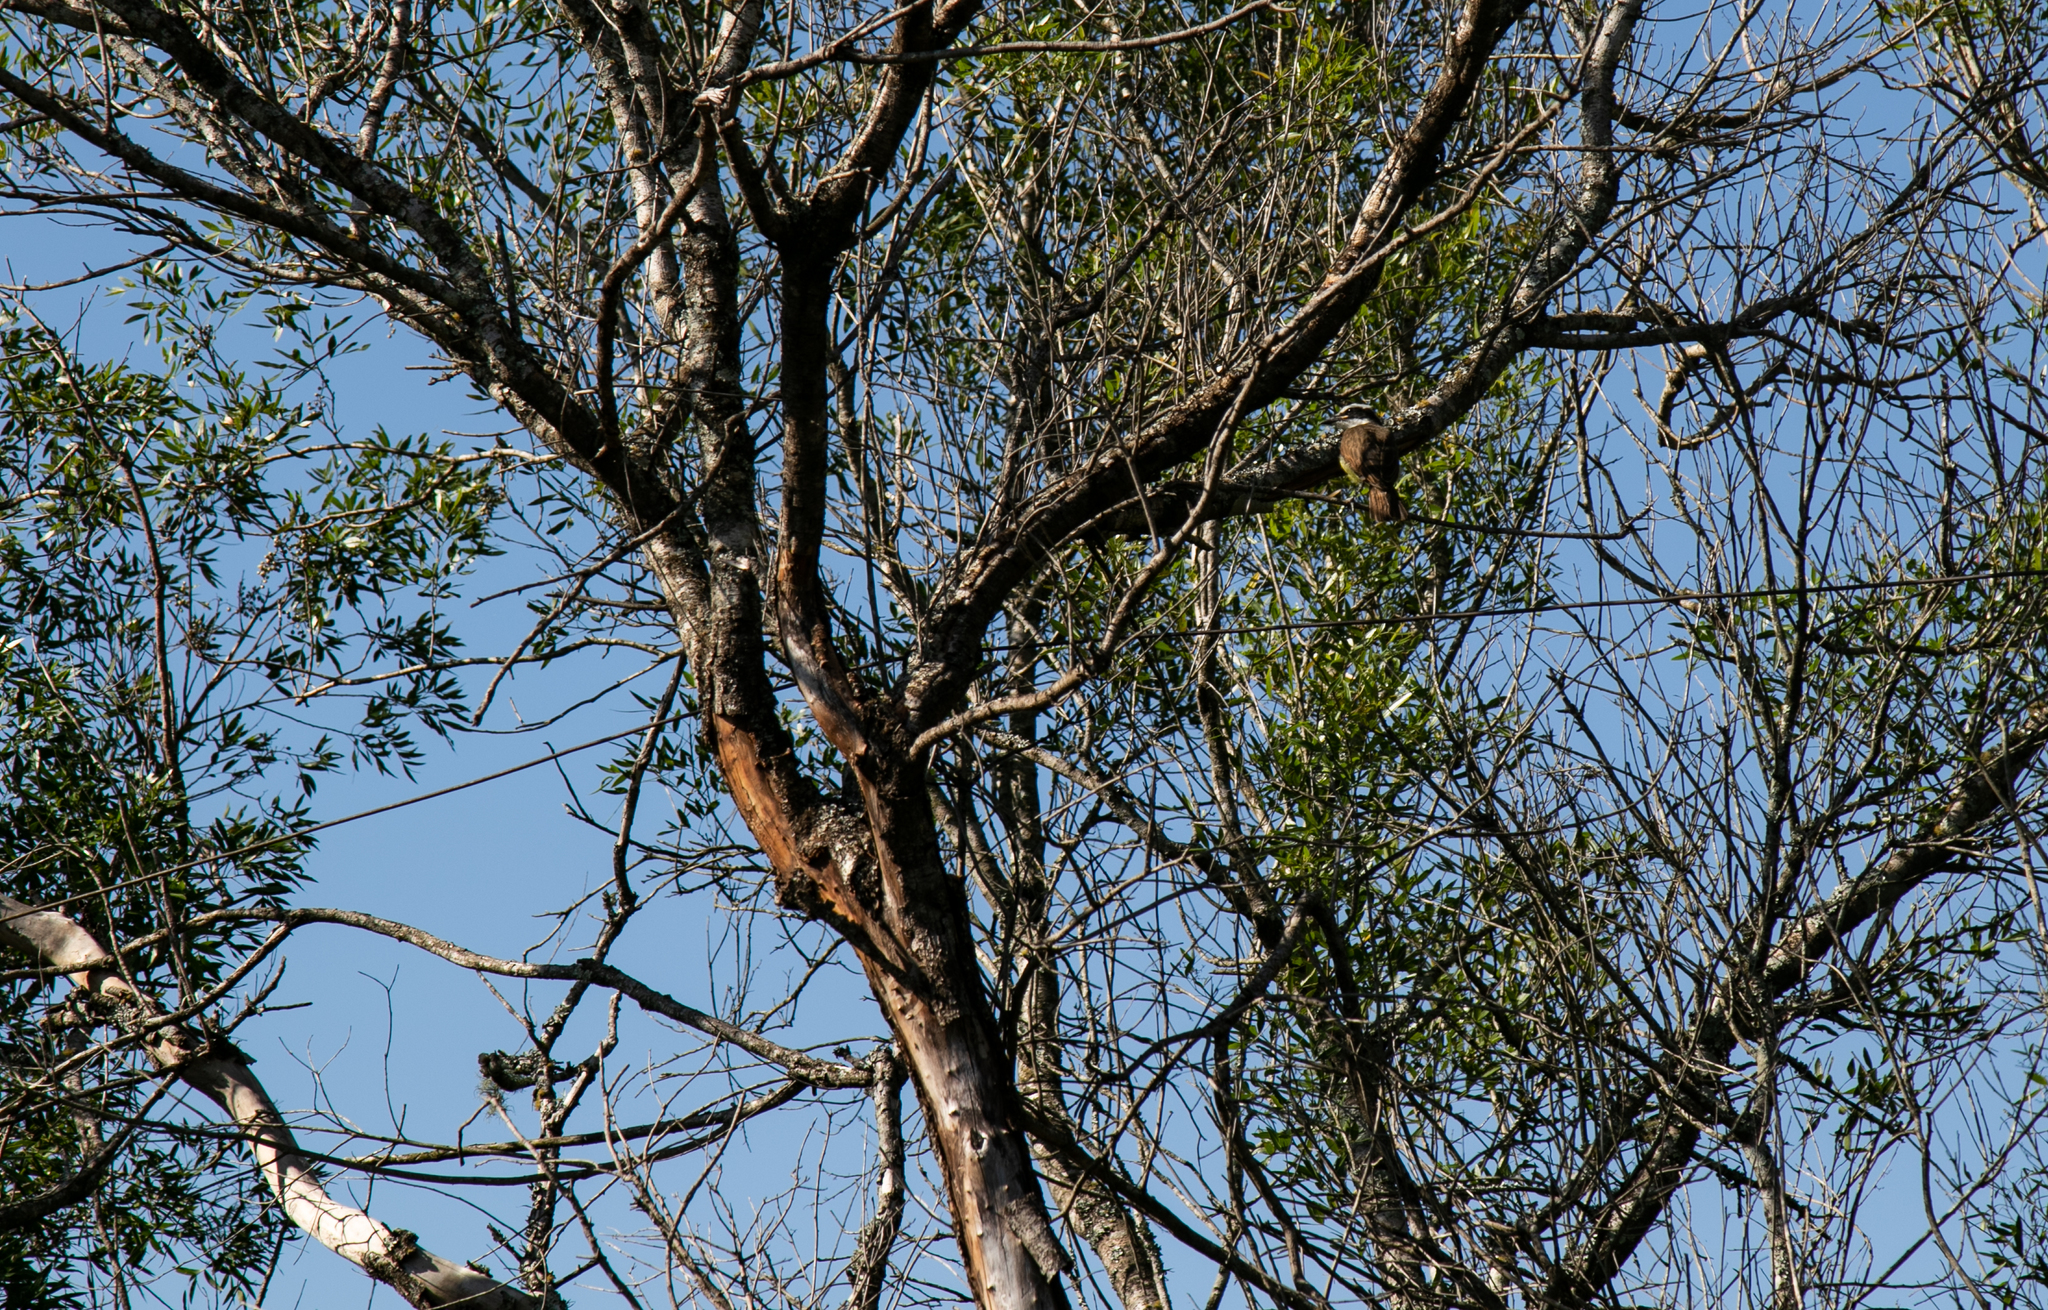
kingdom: Animalia
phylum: Chordata
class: Aves
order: Passeriformes
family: Tyrannidae
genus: Pitangus
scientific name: Pitangus sulphuratus
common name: Great kiskadee
